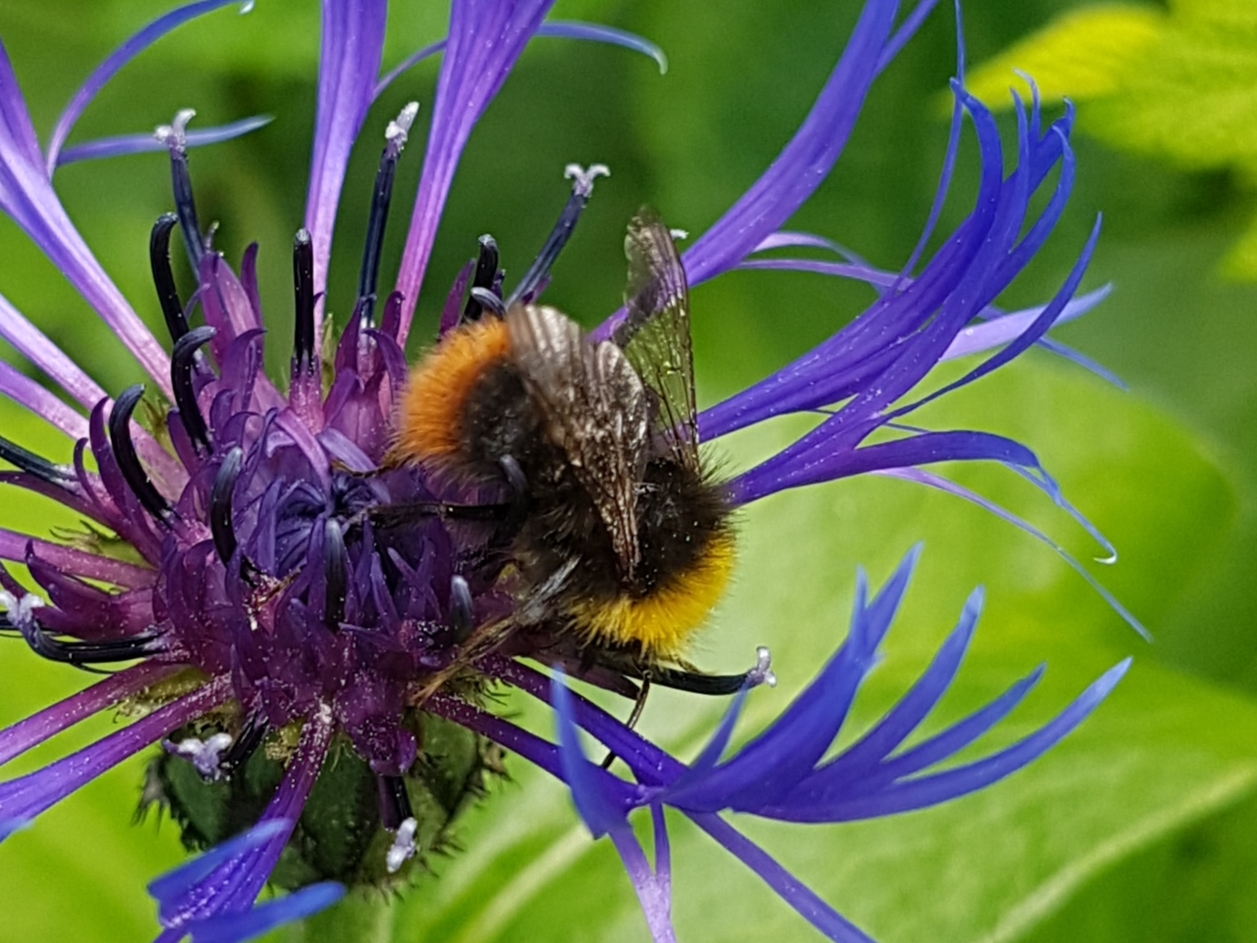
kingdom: Animalia
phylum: Arthropoda
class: Insecta
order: Hymenoptera
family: Apidae
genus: Bombus
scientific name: Bombus pratorum
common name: Early humble-bee
